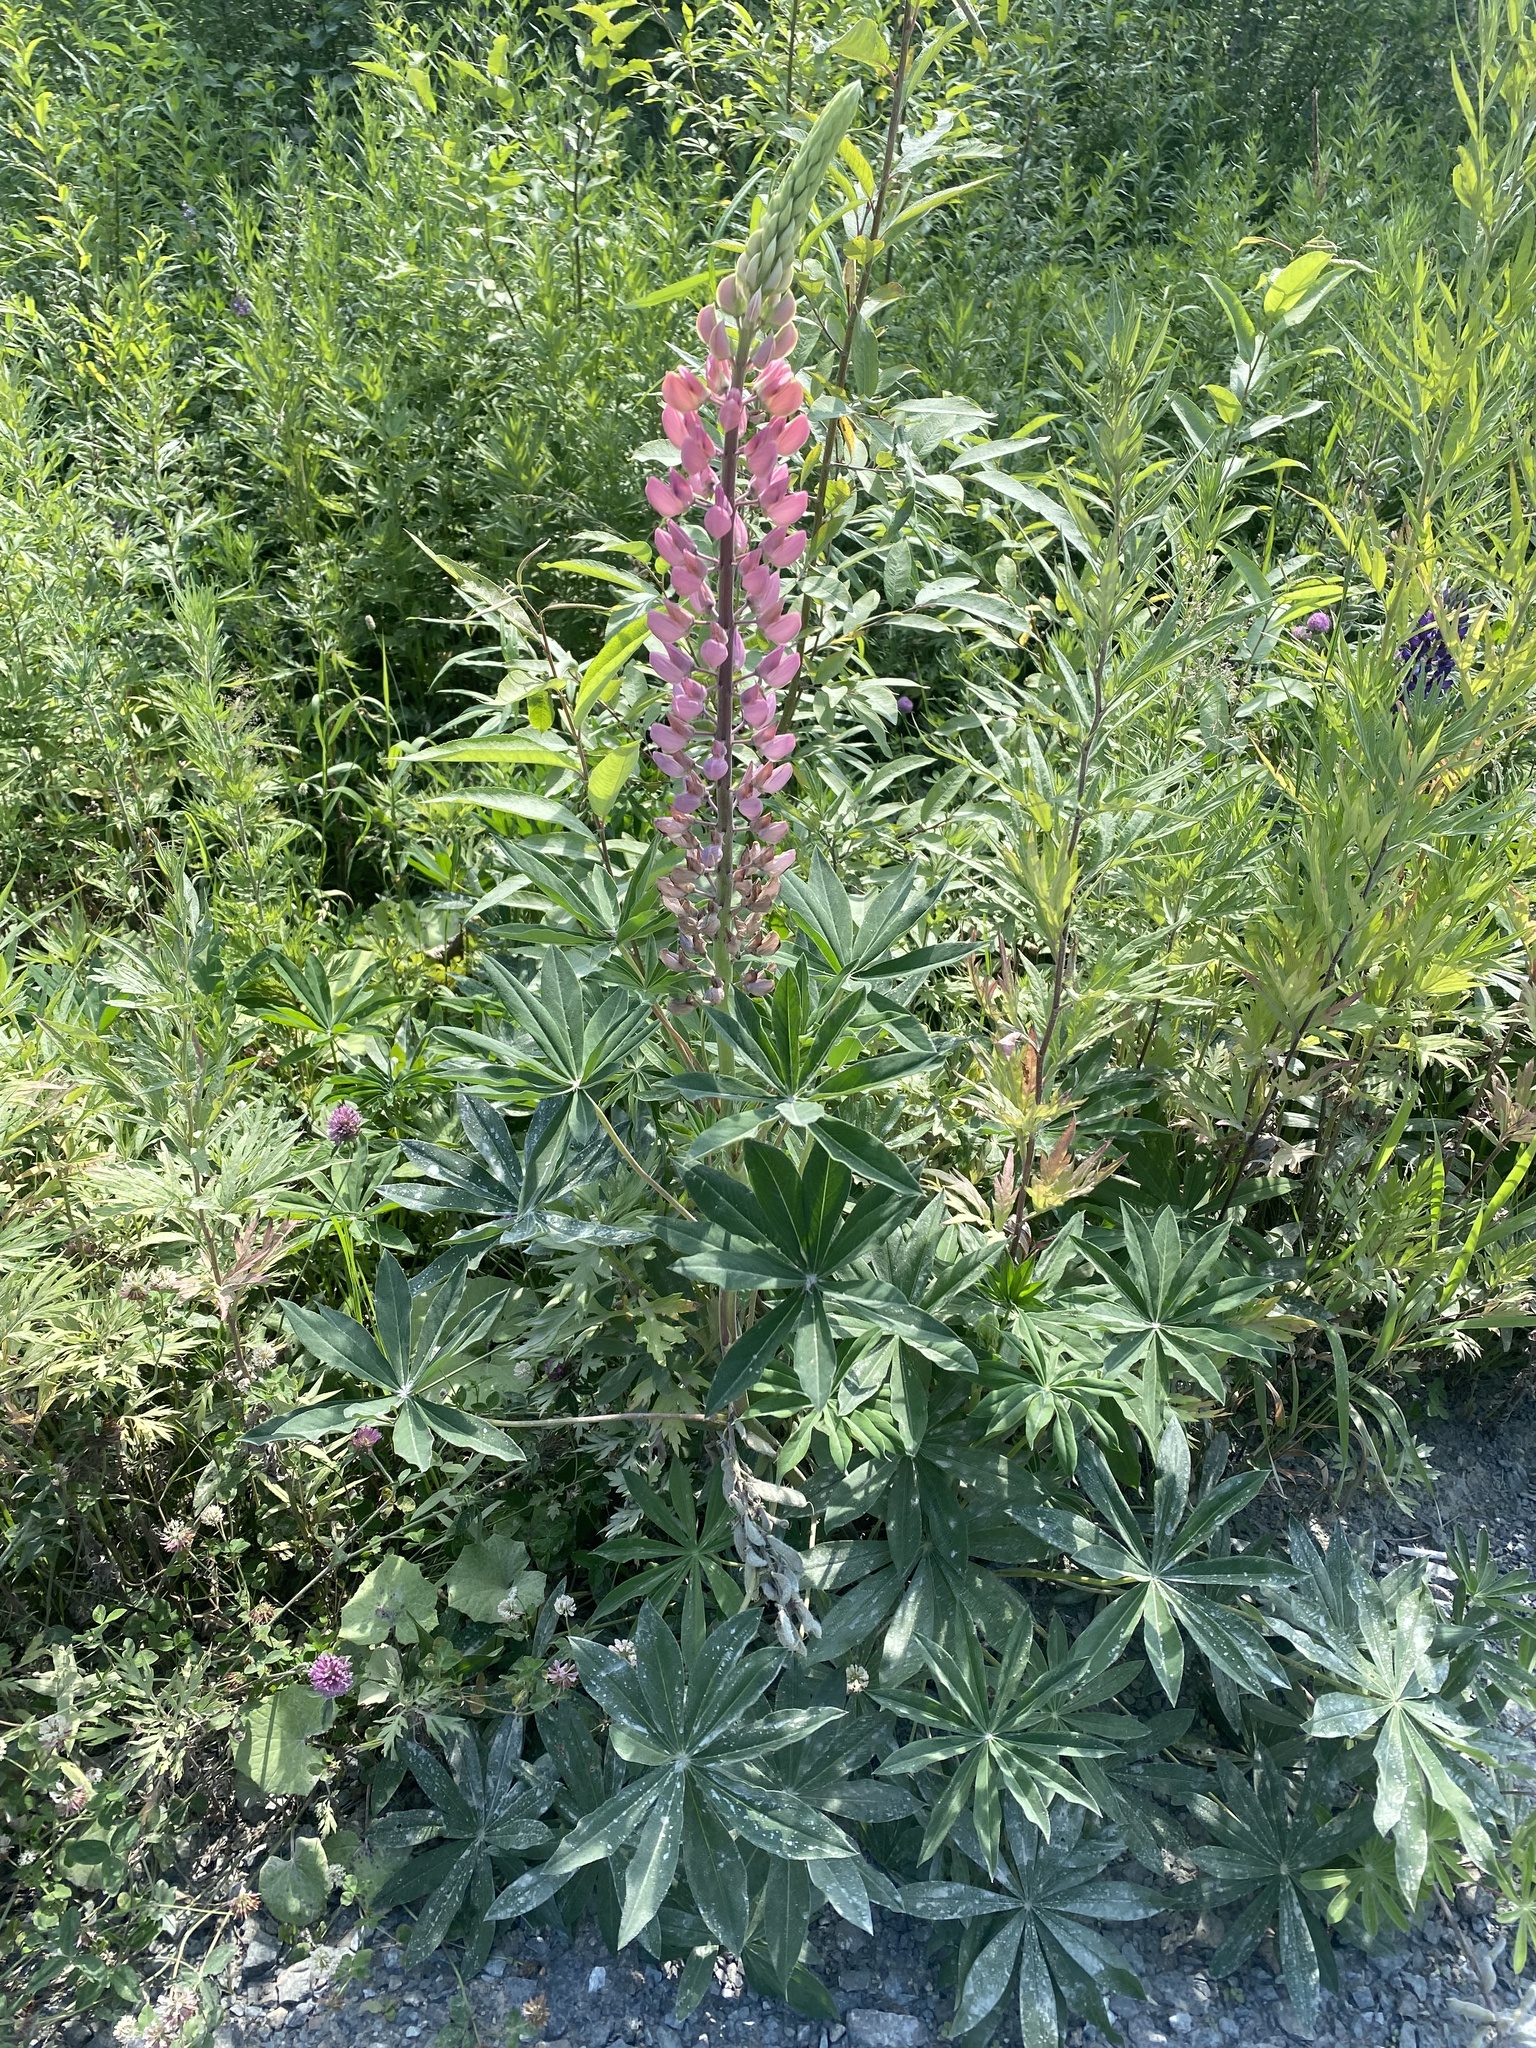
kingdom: Plantae
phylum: Tracheophyta
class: Magnoliopsida
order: Fabales
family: Fabaceae
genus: Lupinus
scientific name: Lupinus polyphyllus
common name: Garden lupin
